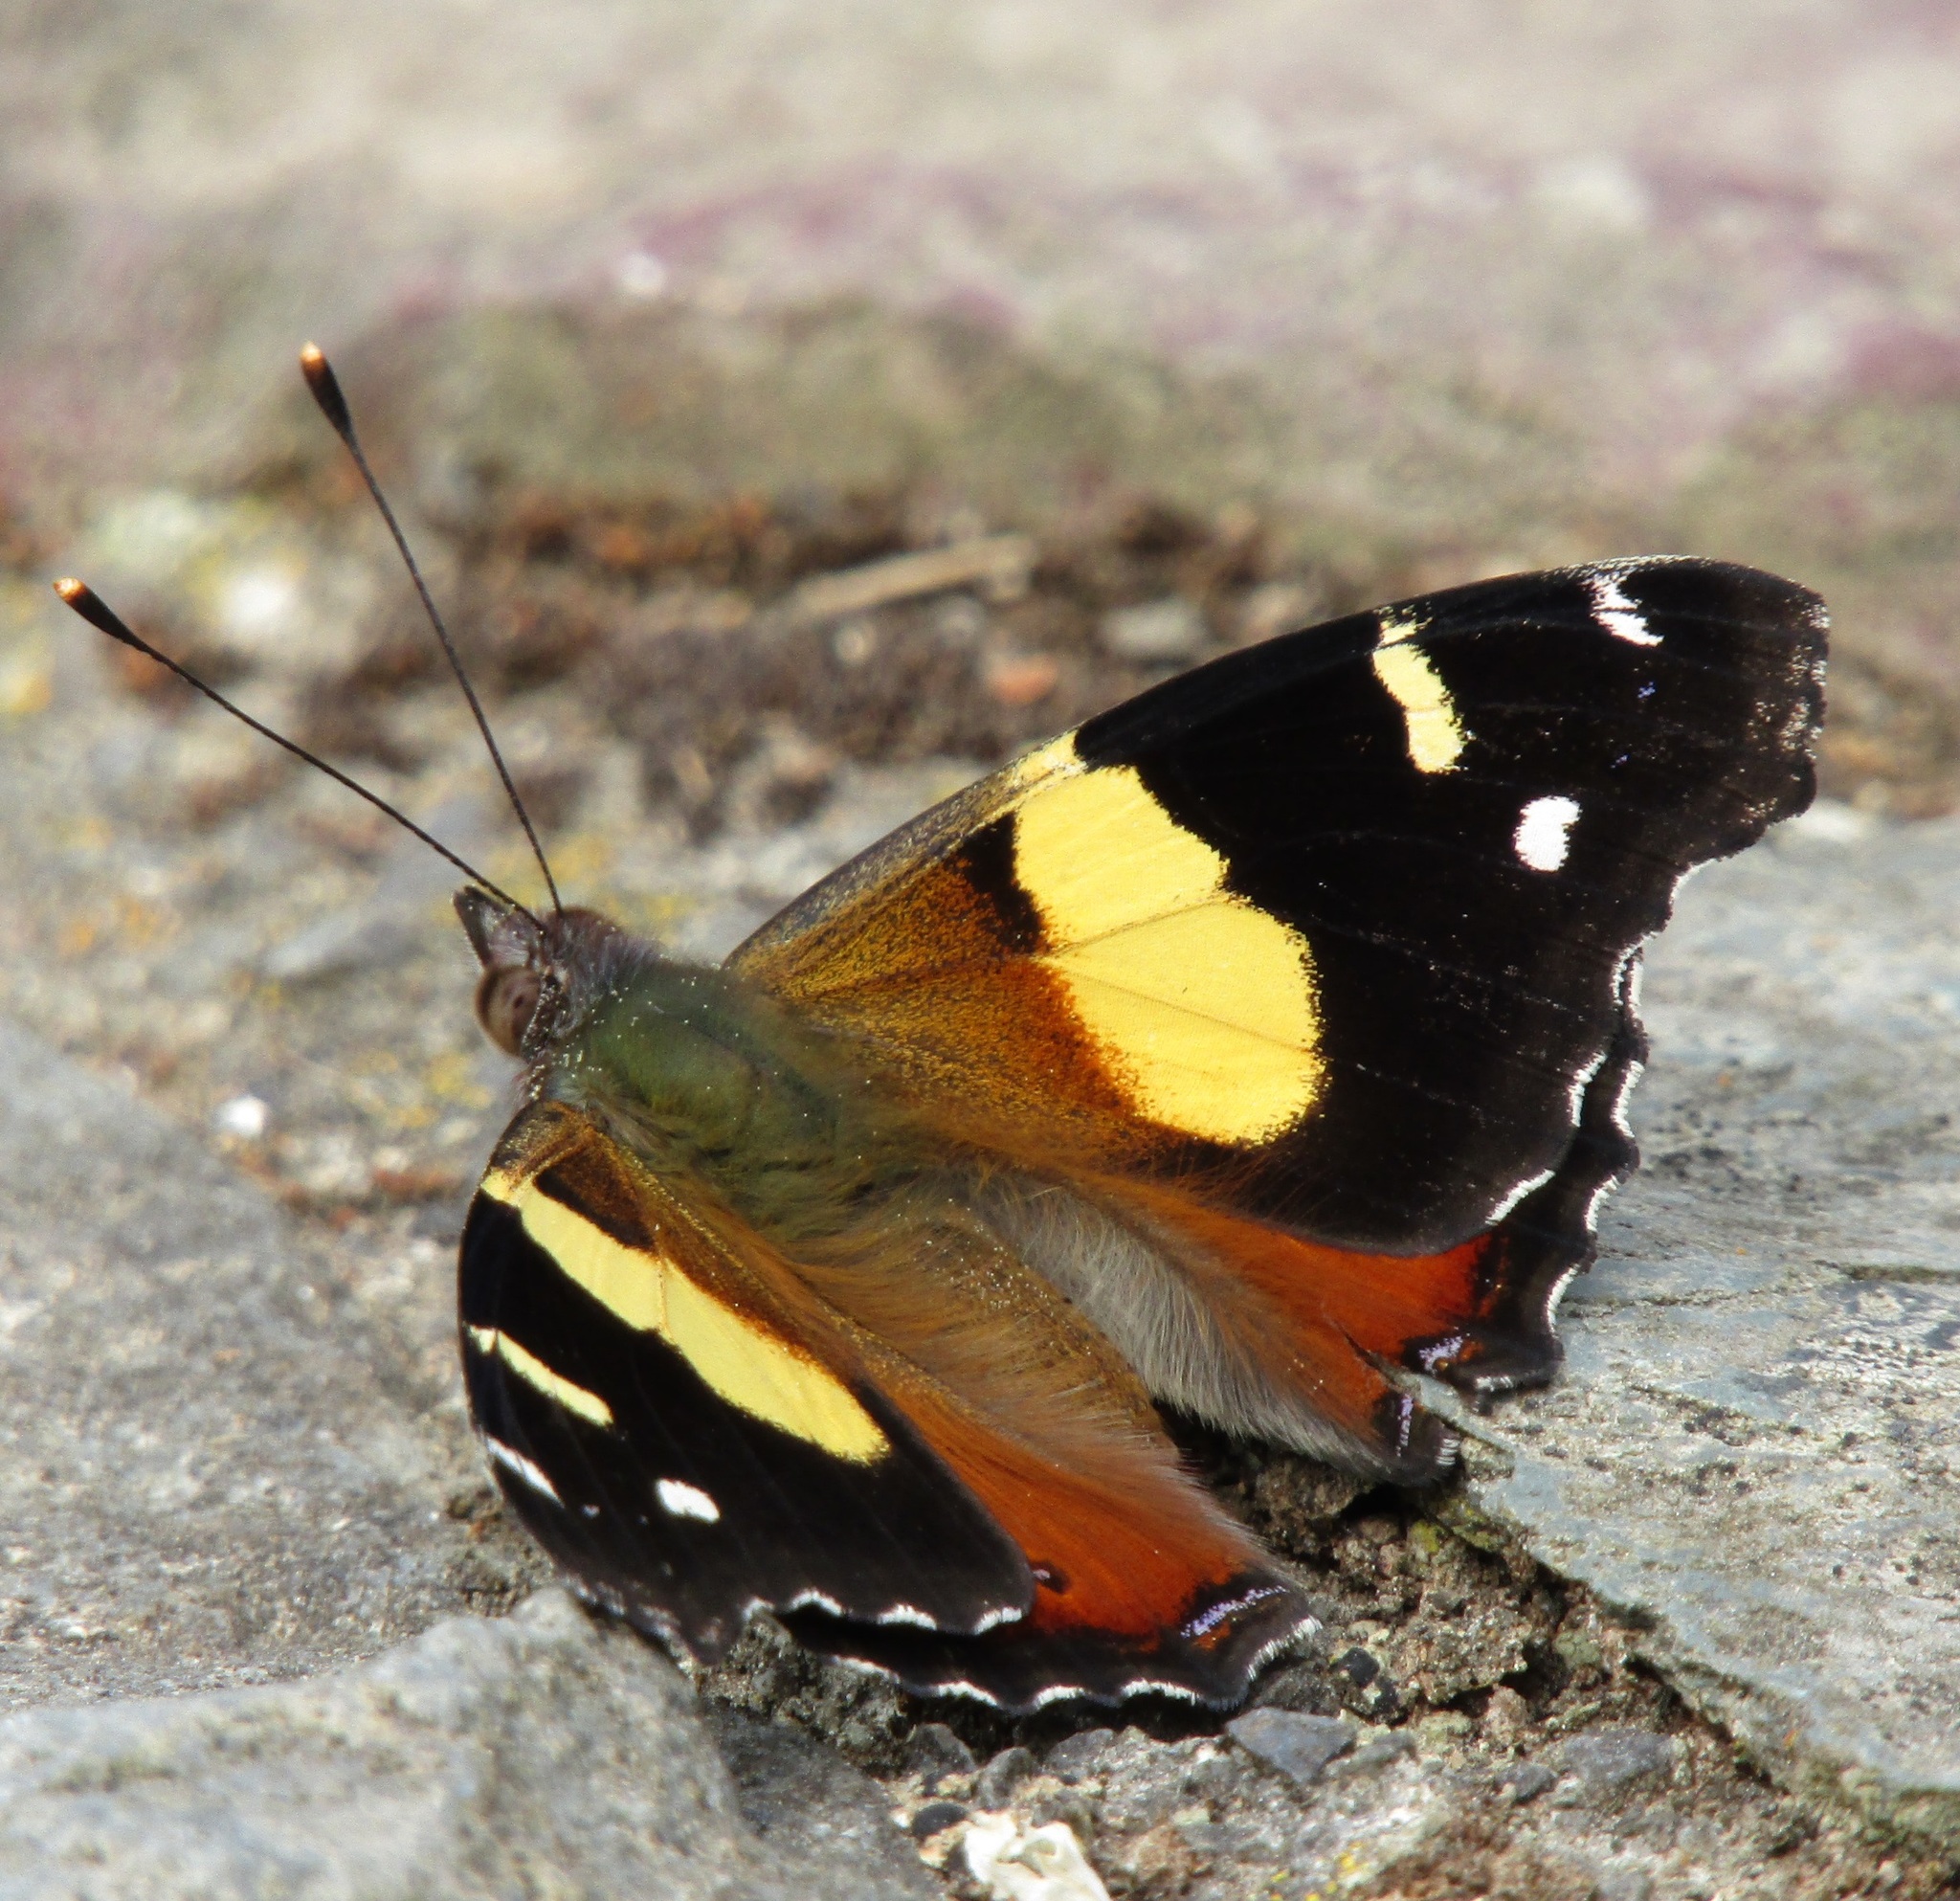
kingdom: Animalia
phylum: Arthropoda
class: Insecta
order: Lepidoptera
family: Nymphalidae
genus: Vanessa
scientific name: Vanessa itea
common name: Yellow admiral
